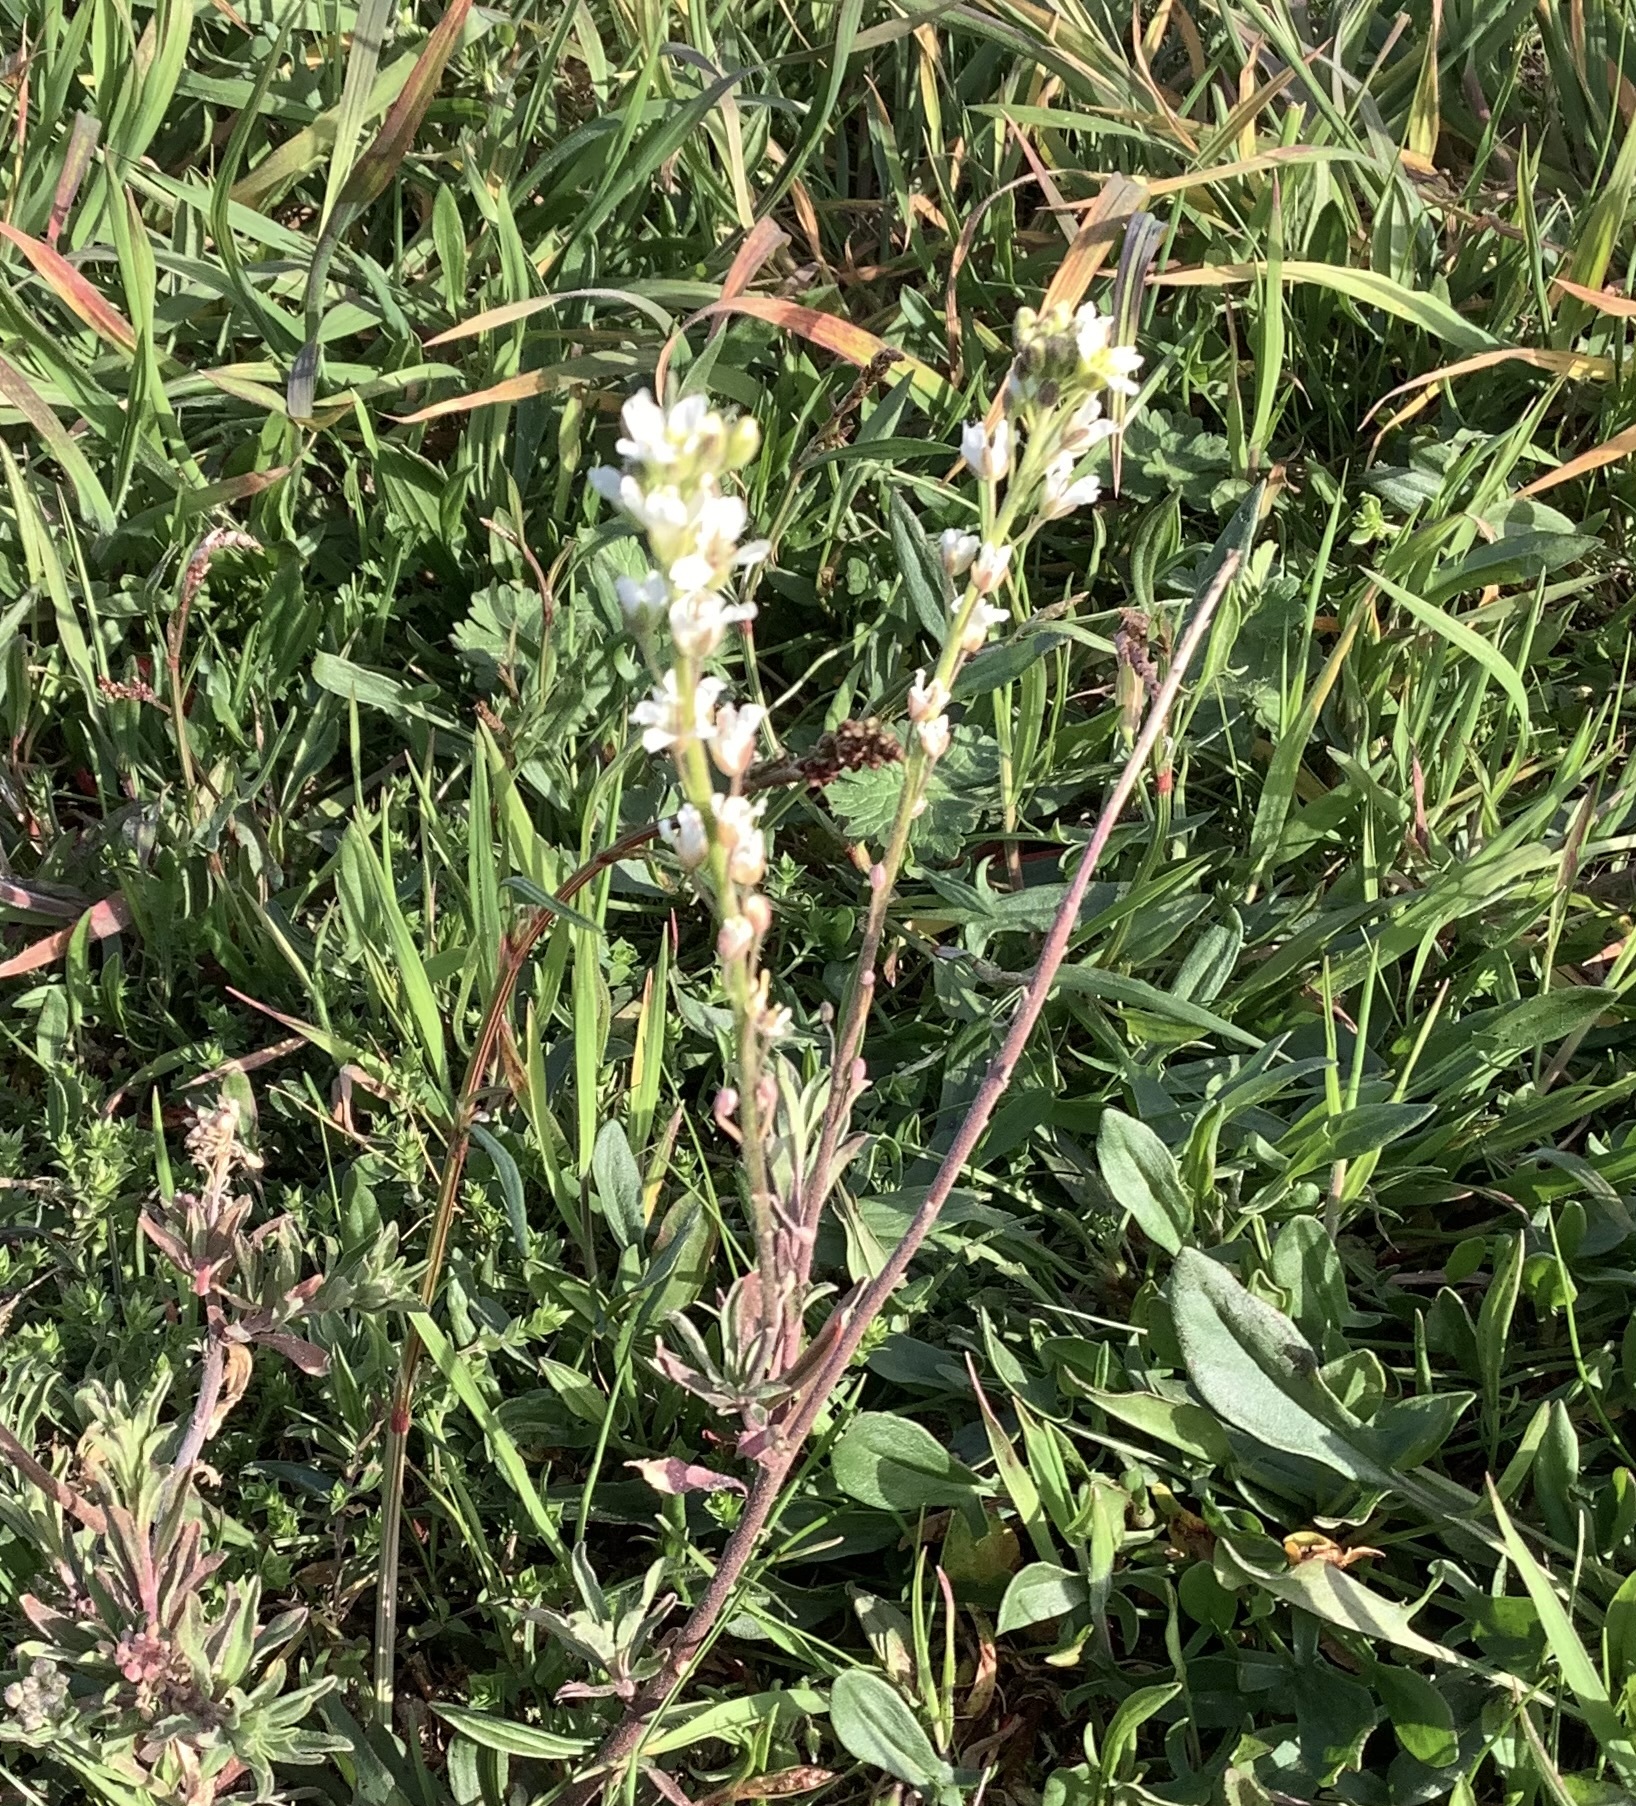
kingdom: Plantae
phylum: Tracheophyta
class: Magnoliopsida
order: Brassicales
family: Brassicaceae
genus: Berteroa
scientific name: Berteroa incana
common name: Hoary alison
